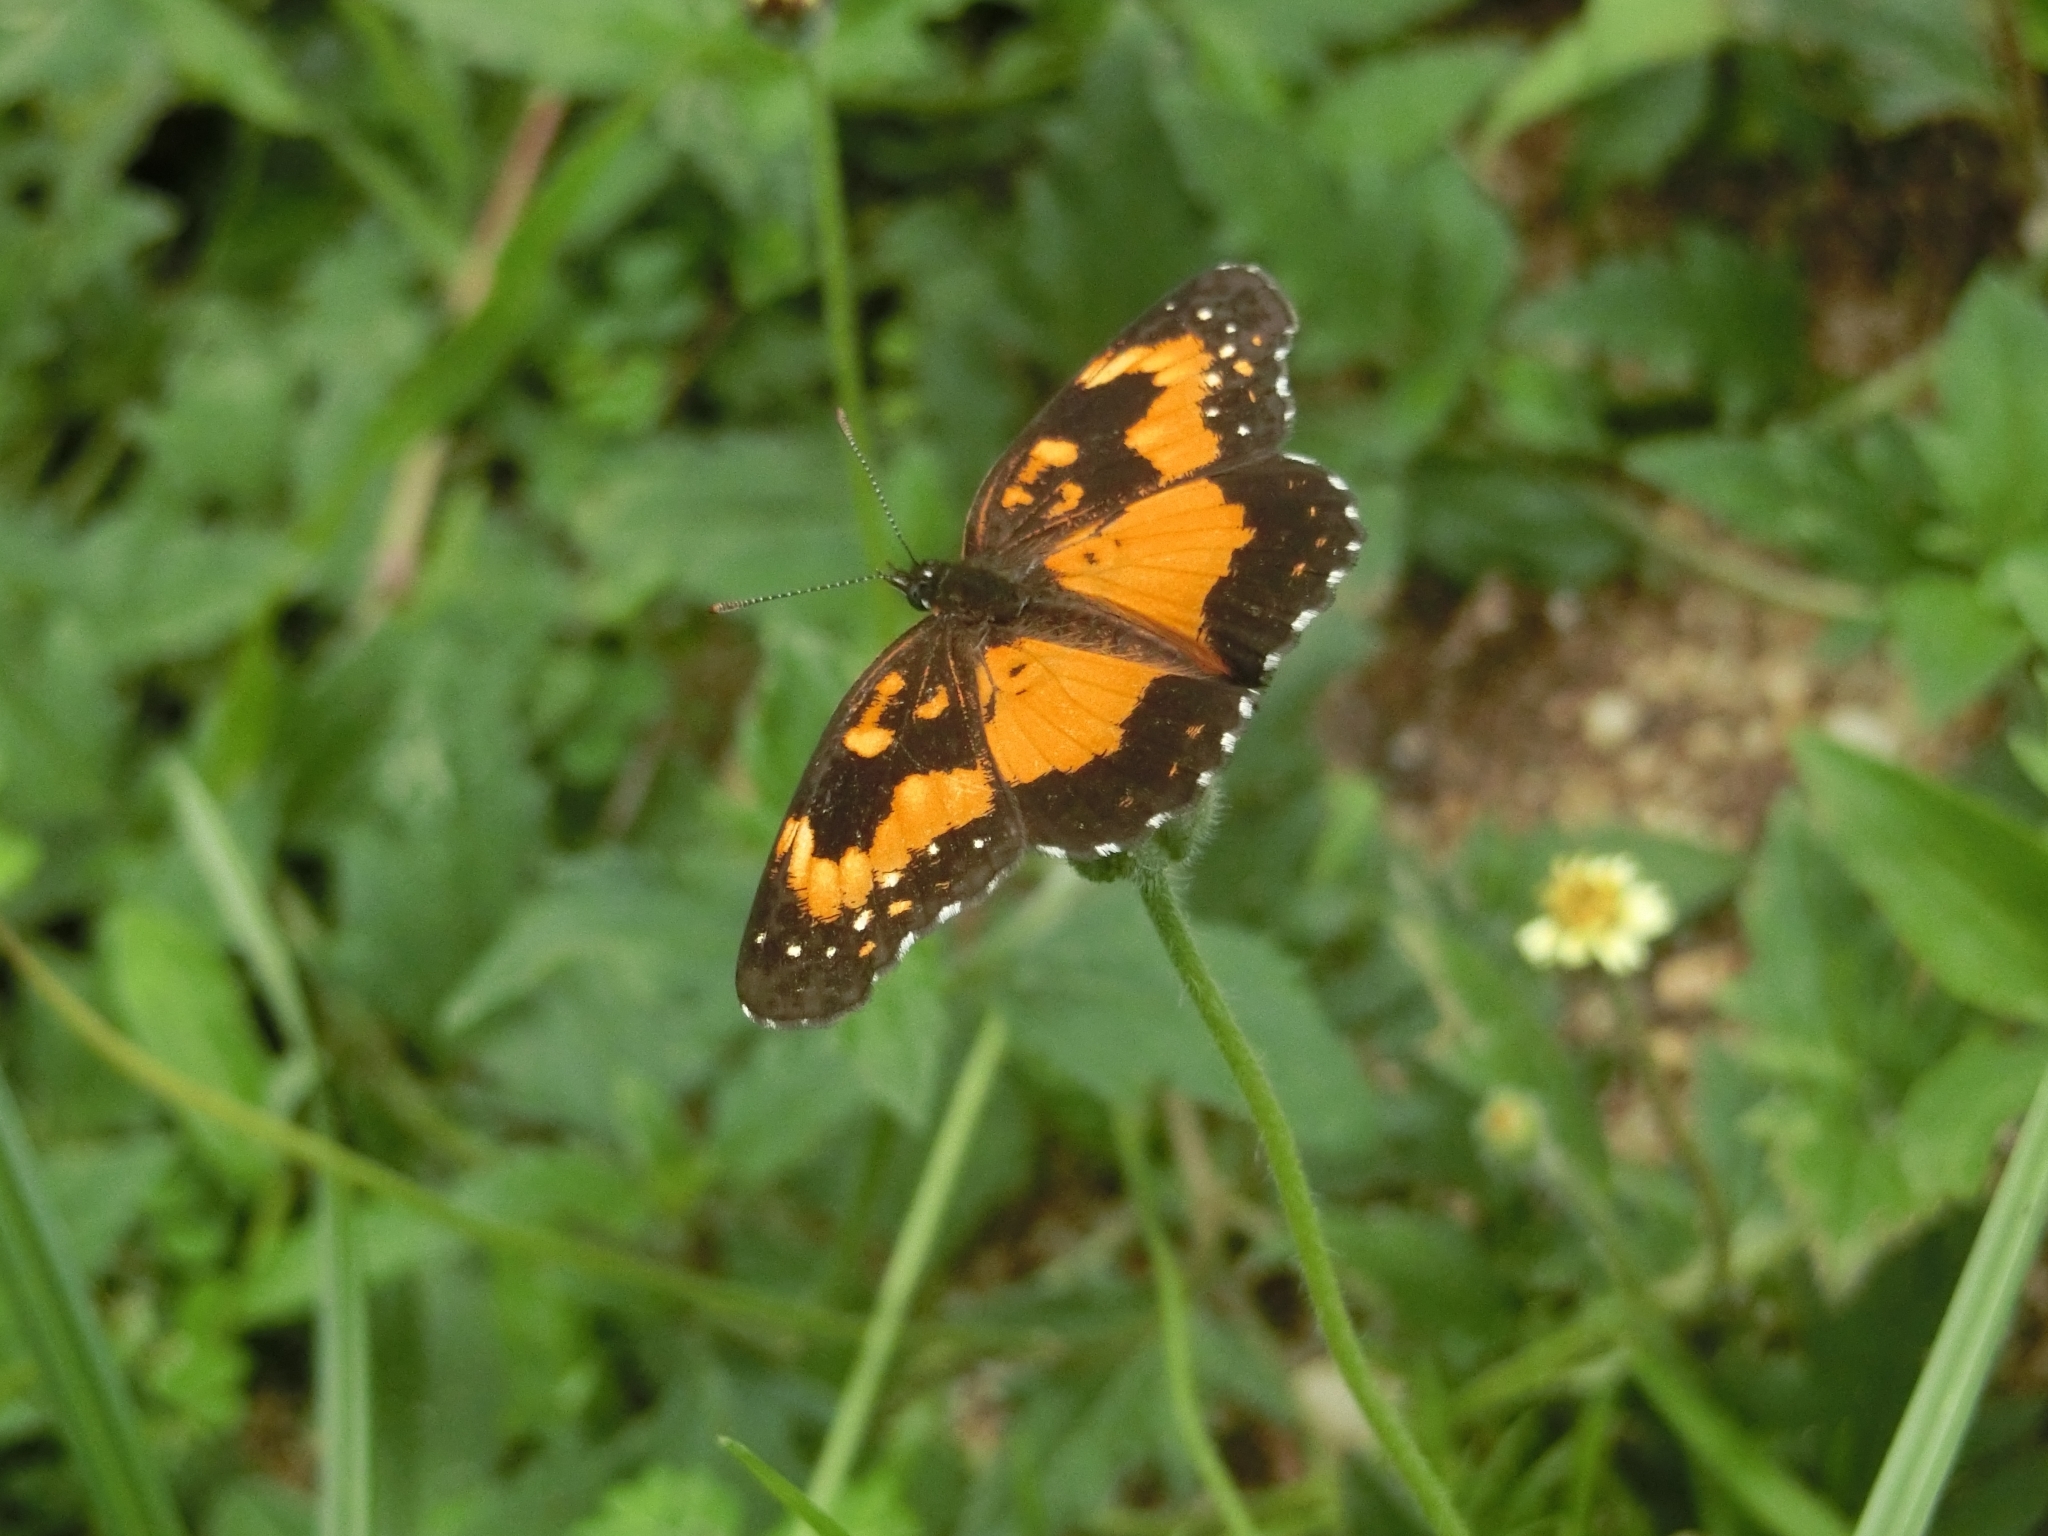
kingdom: Animalia
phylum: Arthropoda
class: Insecta
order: Lepidoptera
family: Nymphalidae
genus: Chlosyne
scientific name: Chlosyne lacinia
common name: Bordered patch
